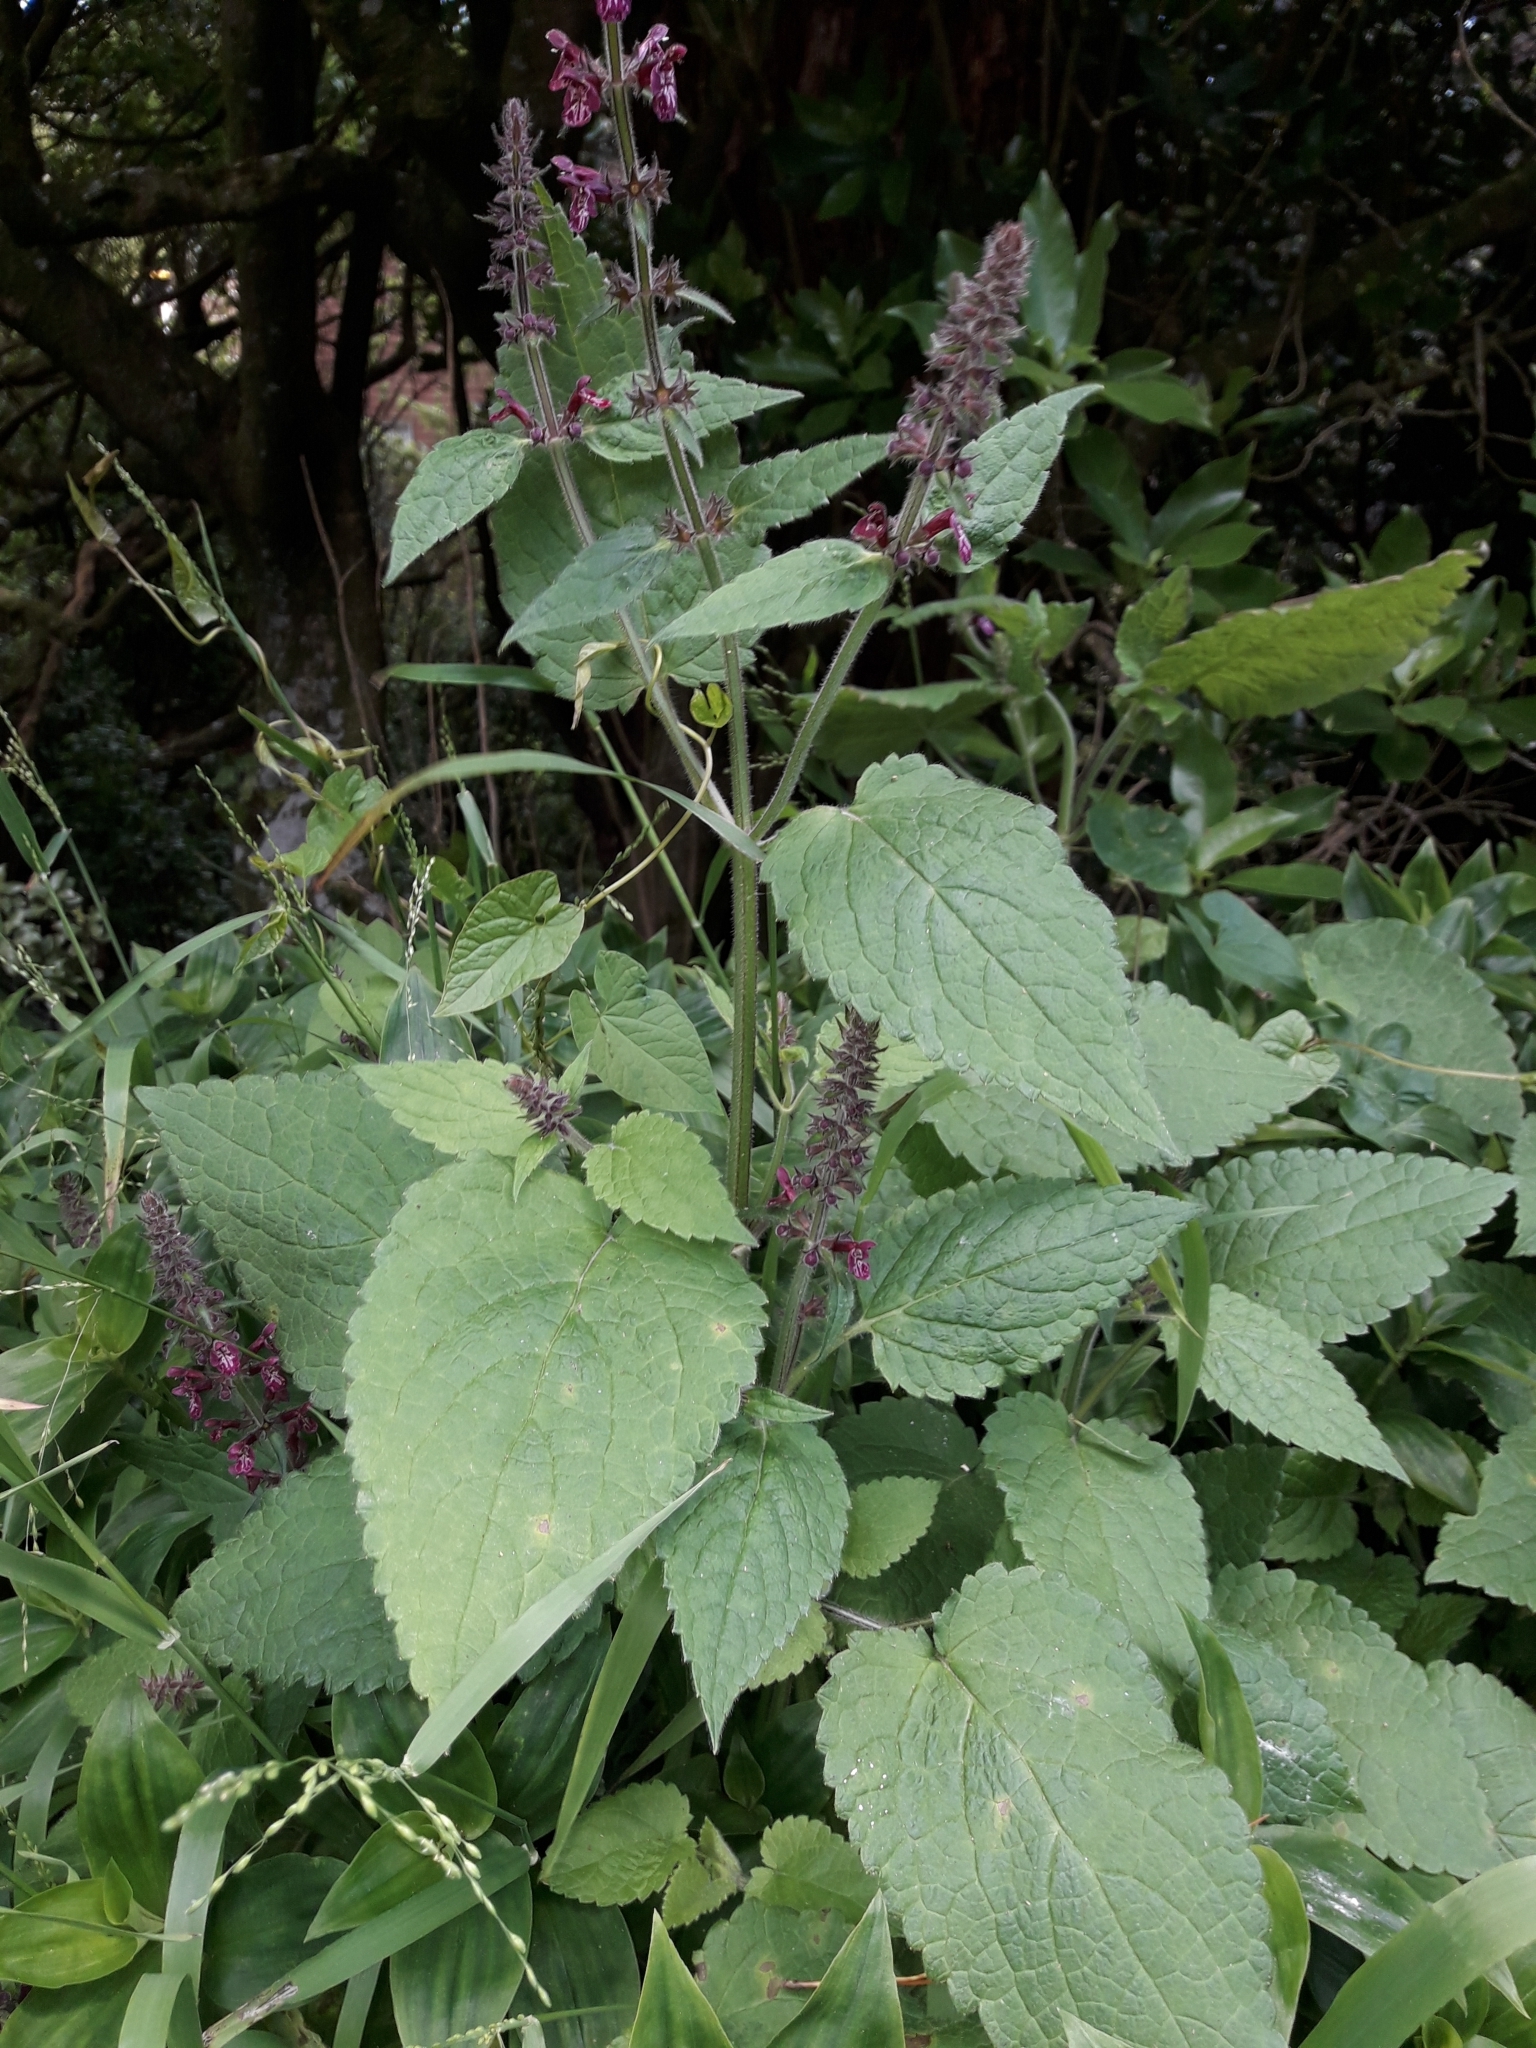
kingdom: Plantae
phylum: Tracheophyta
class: Magnoliopsida
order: Lamiales
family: Lamiaceae
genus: Stachys
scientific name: Stachys sylvatica
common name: Hedge woundwort
